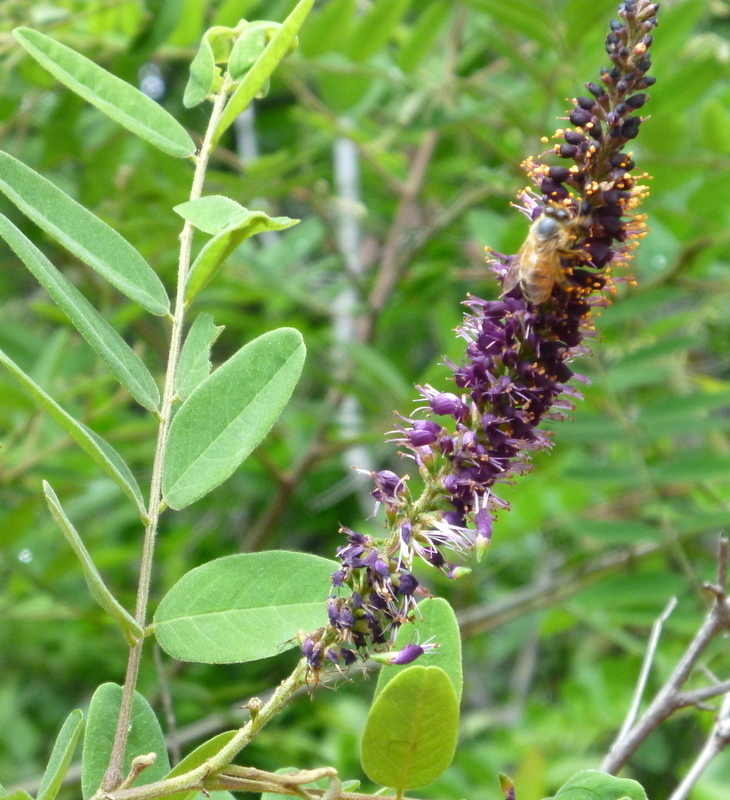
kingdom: Plantae
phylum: Tracheophyta
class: Magnoliopsida
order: Fabales
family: Fabaceae
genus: Amorpha
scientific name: Amorpha fruticosa
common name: False indigo
